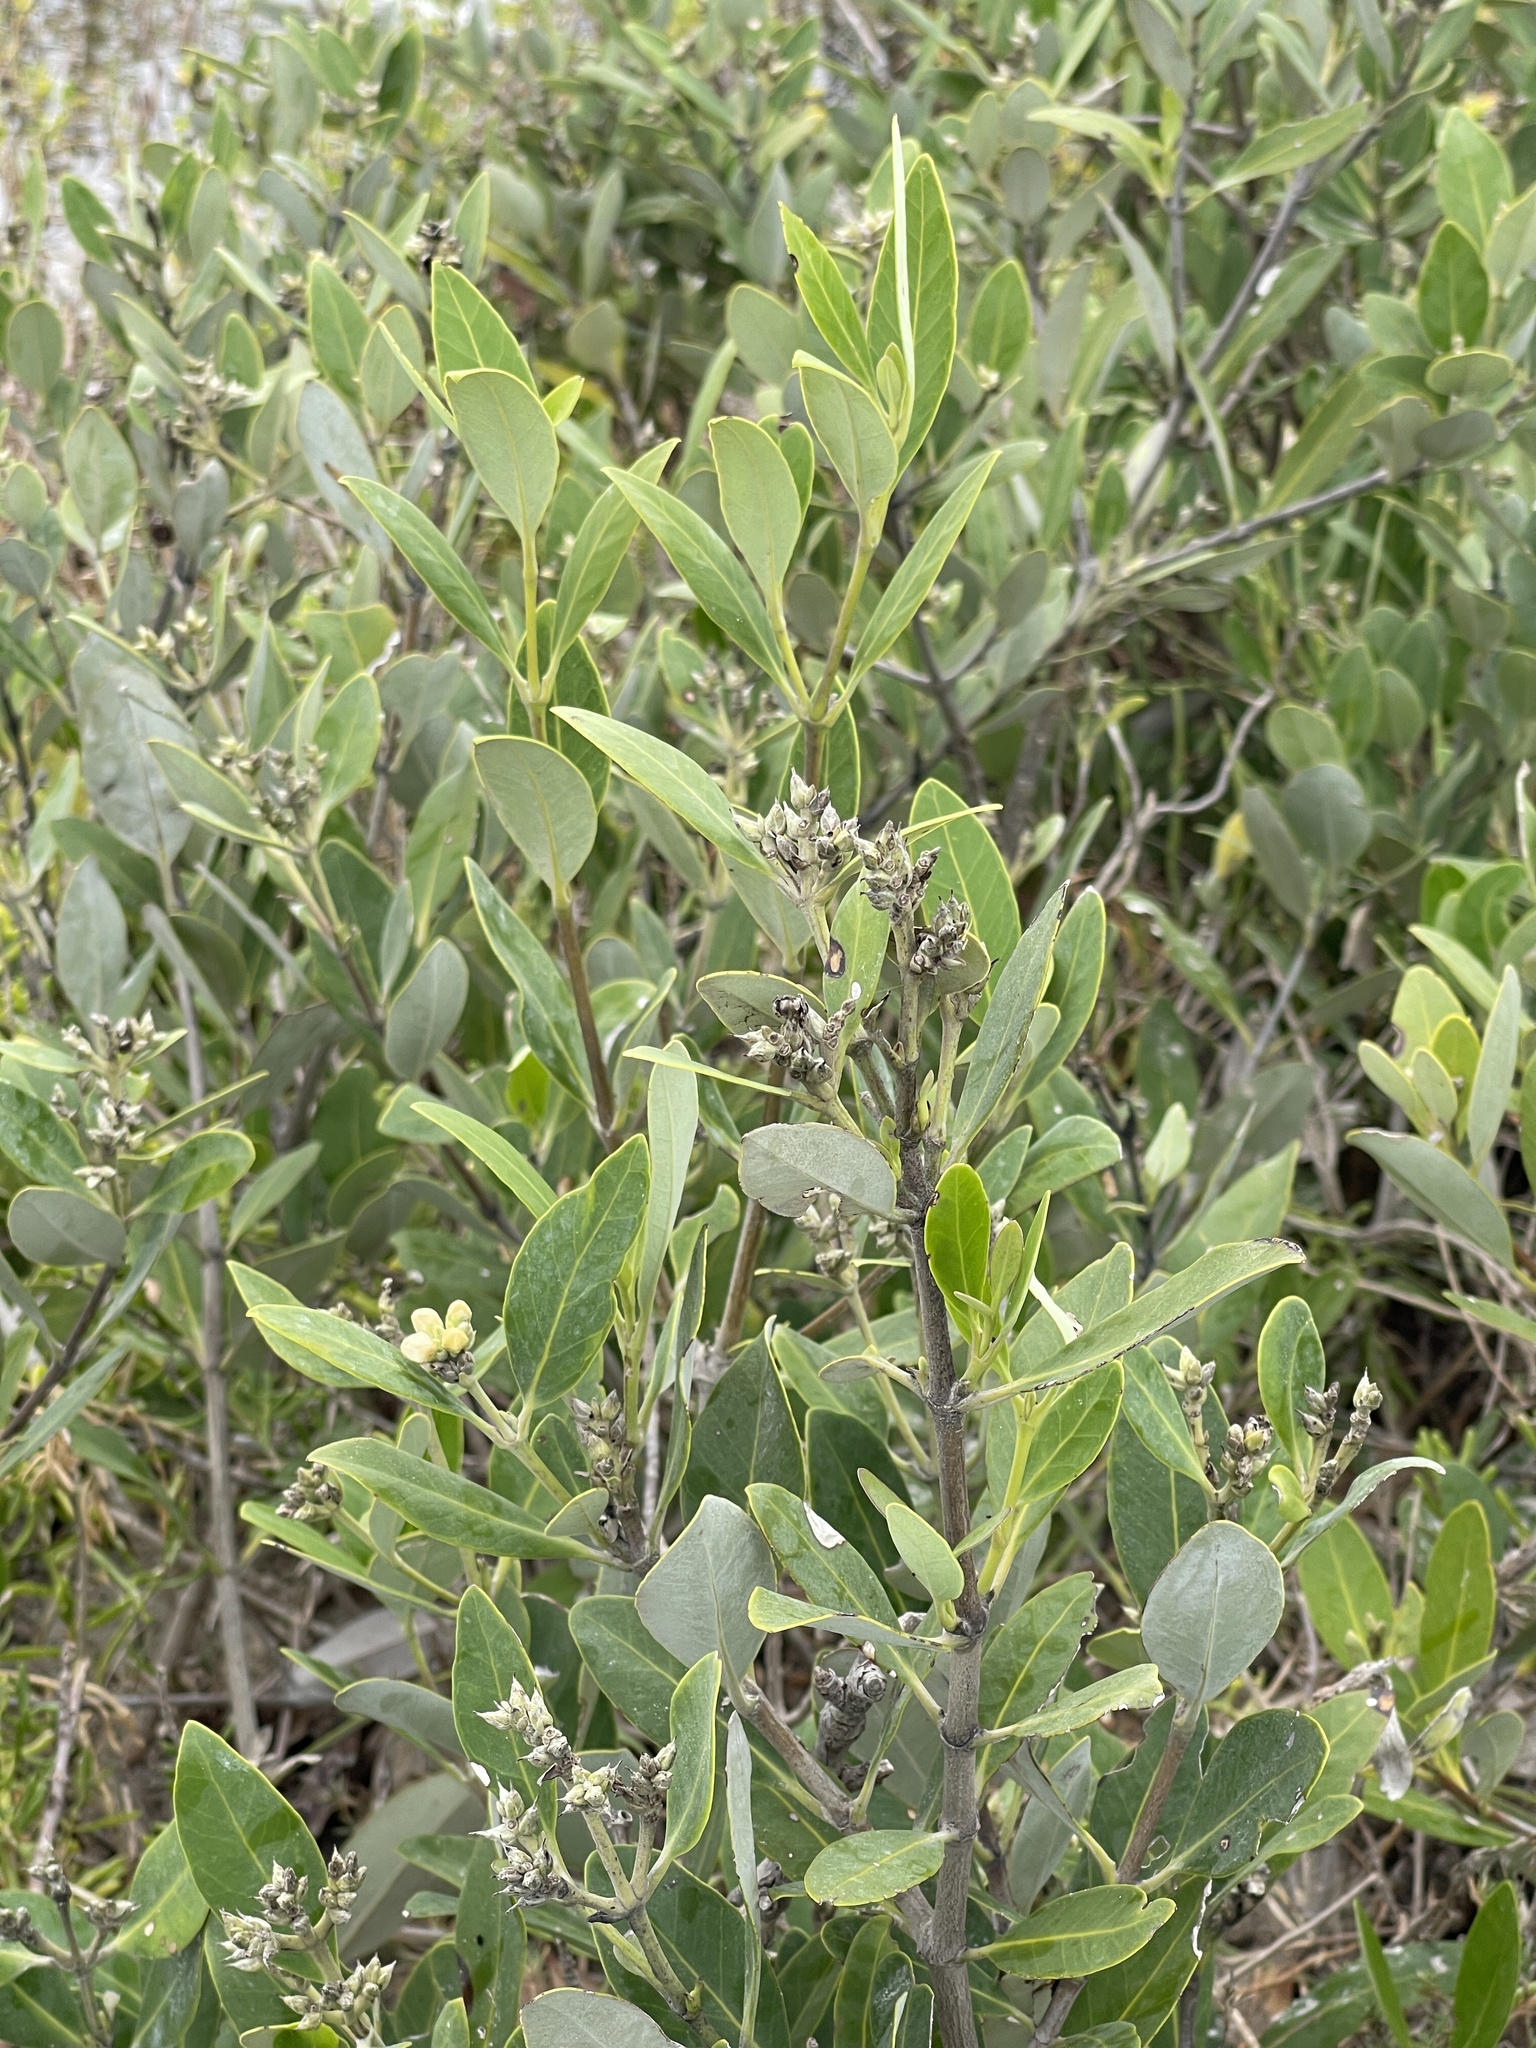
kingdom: Plantae
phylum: Tracheophyta
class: Magnoliopsida
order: Lamiales
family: Acanthaceae
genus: Avicennia
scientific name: Avicennia germinans
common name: Black mangrove
